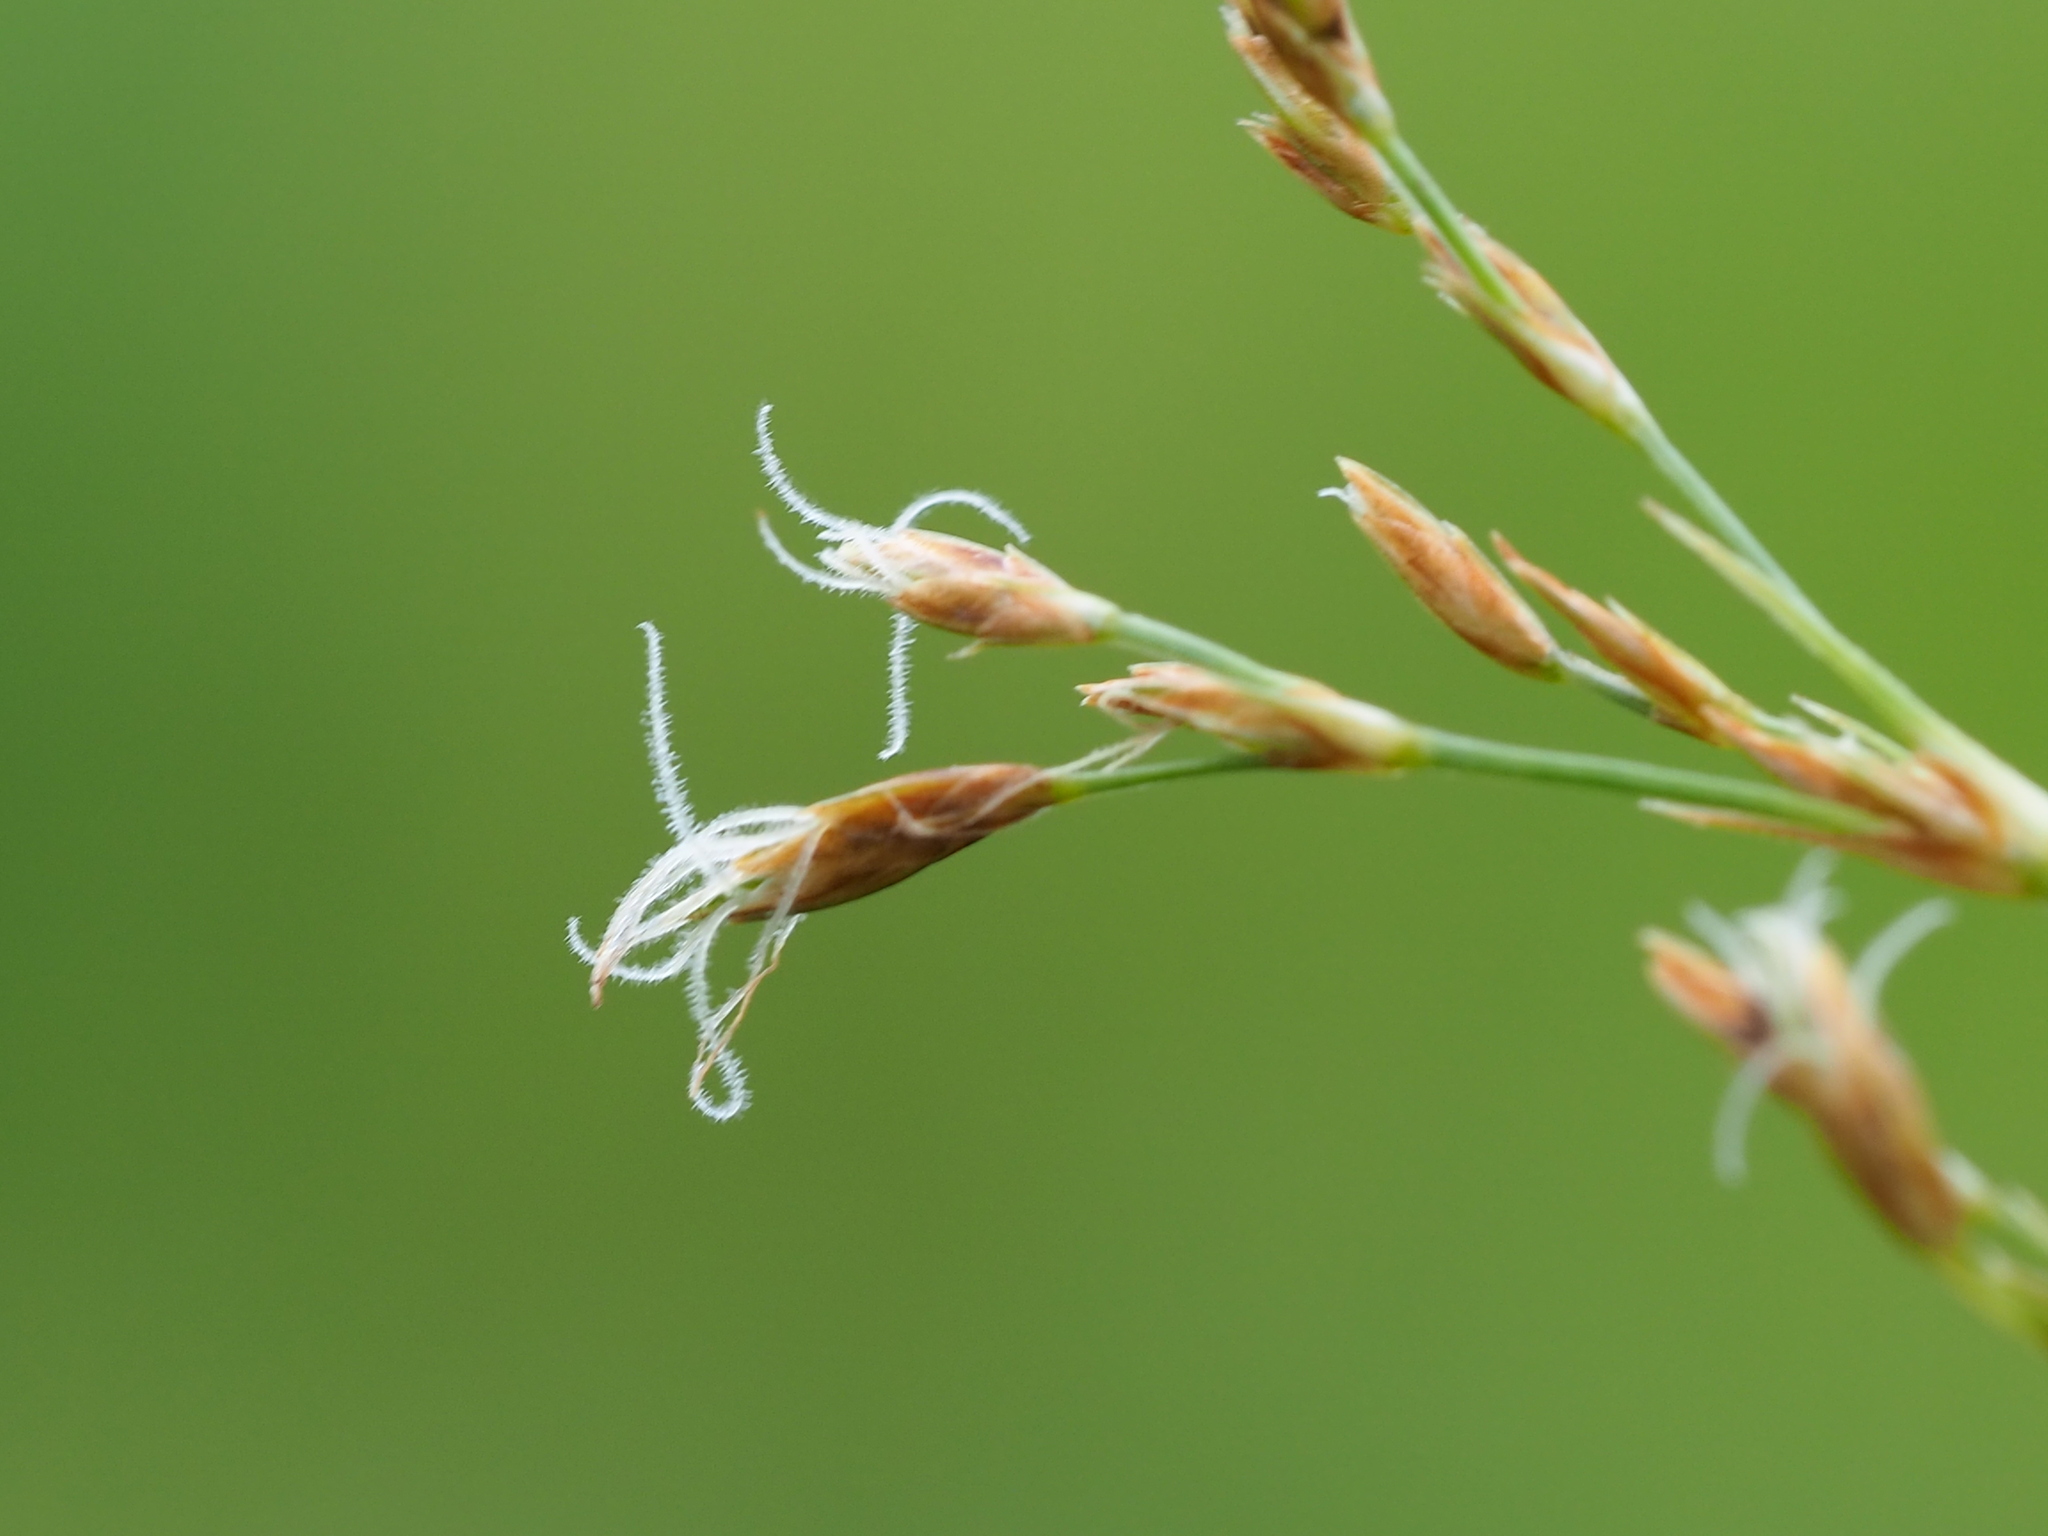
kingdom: Plantae
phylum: Tracheophyta
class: Liliopsida
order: Poales
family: Cyperaceae
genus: Fimbristylis
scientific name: Fimbristylis complanata
